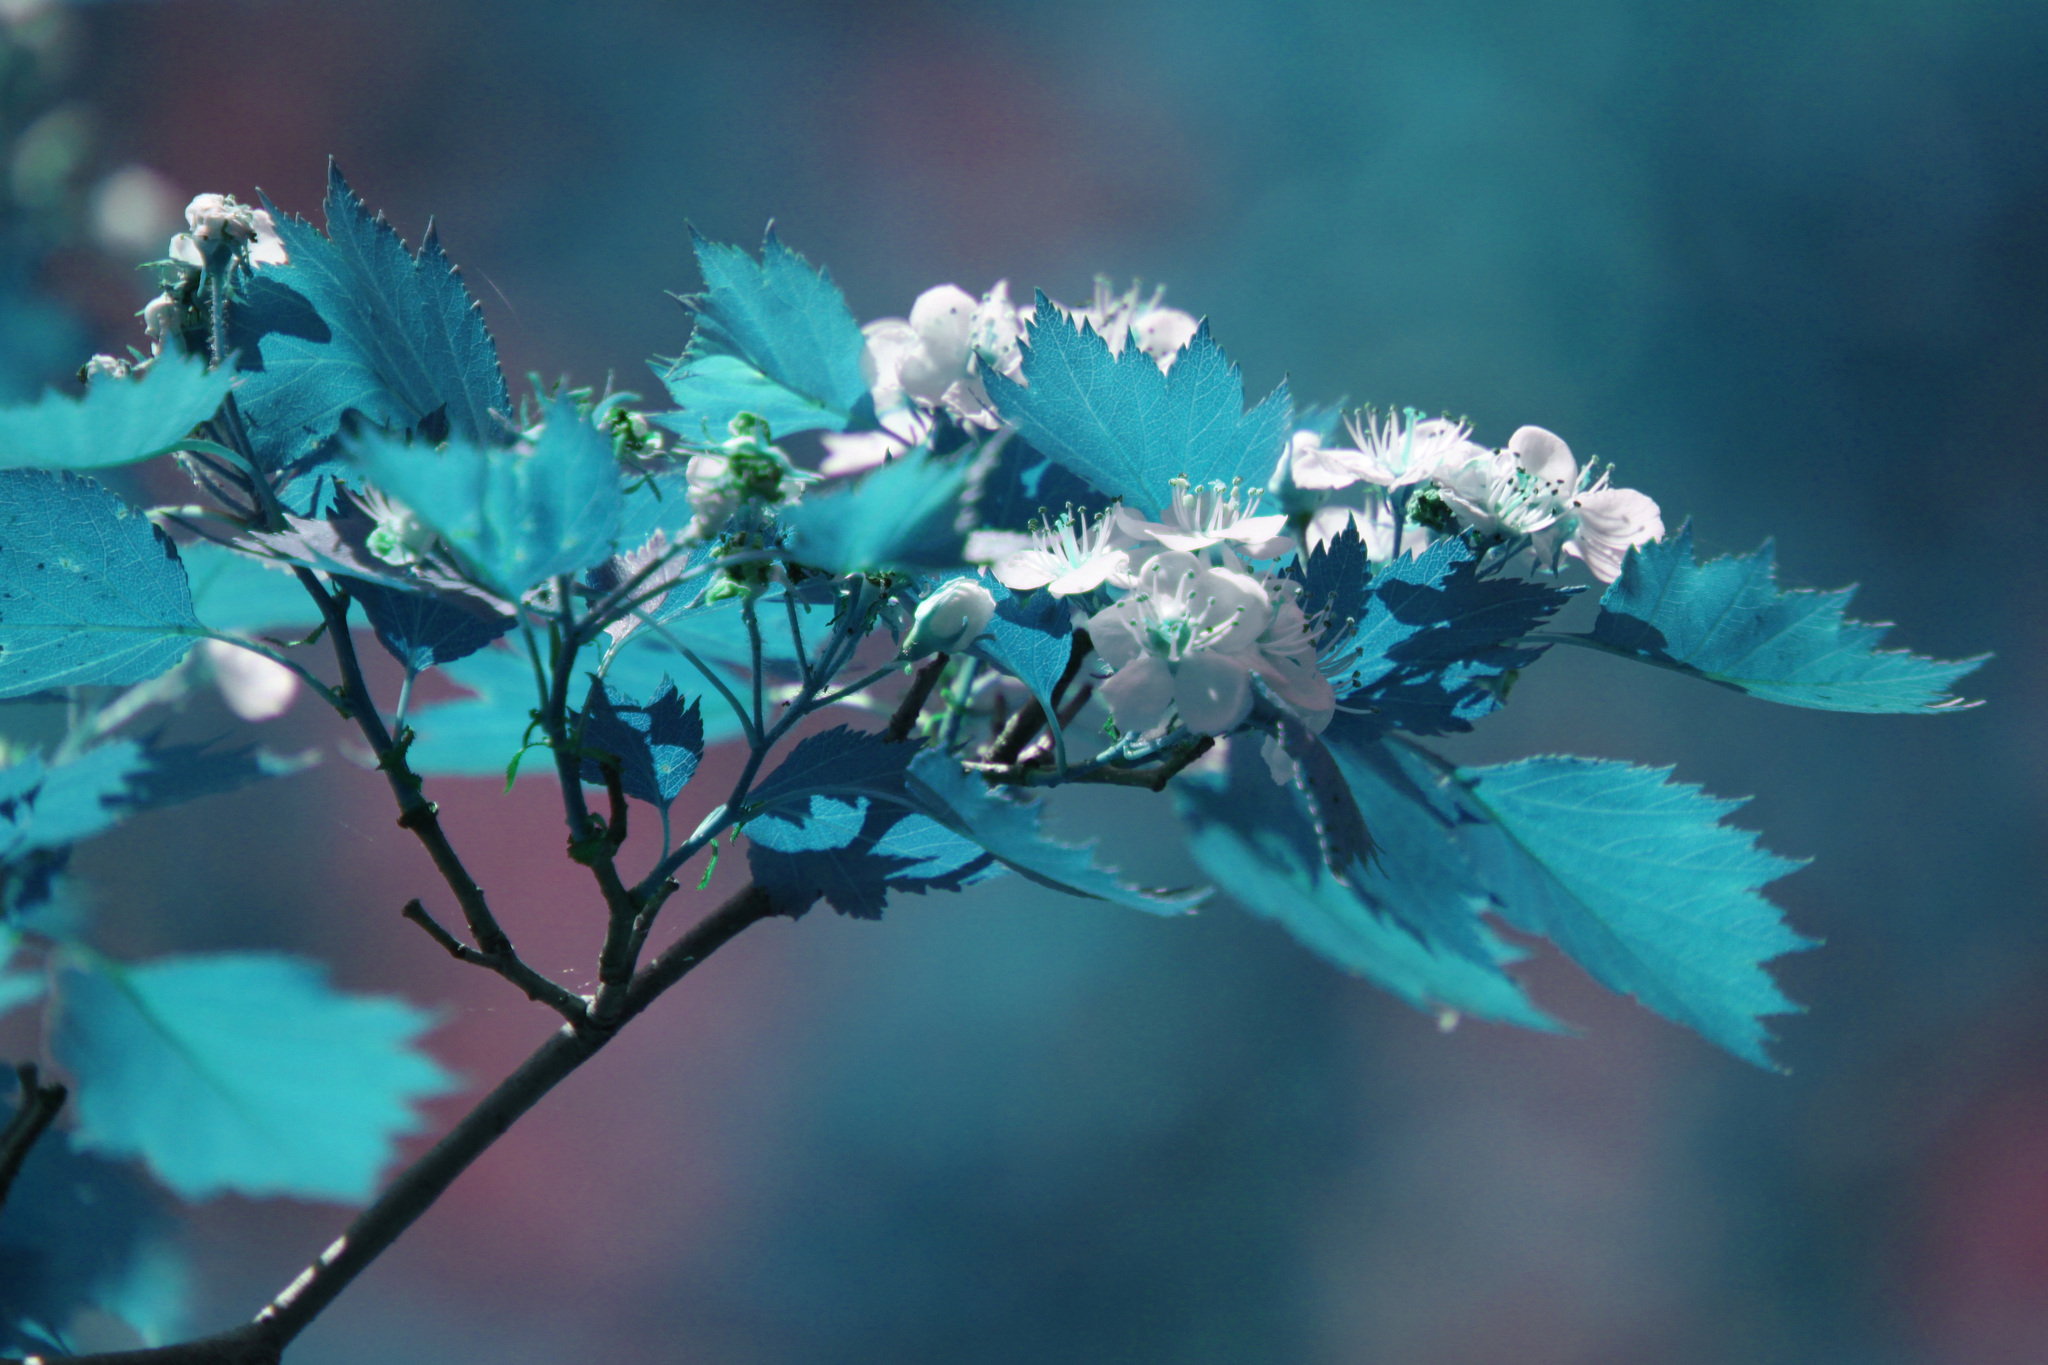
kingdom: Plantae
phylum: Tracheophyta
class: Magnoliopsida
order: Rosales
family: Rosaceae
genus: Crataegus
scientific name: Crataegus flabellata
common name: Bosc's hawthorn
